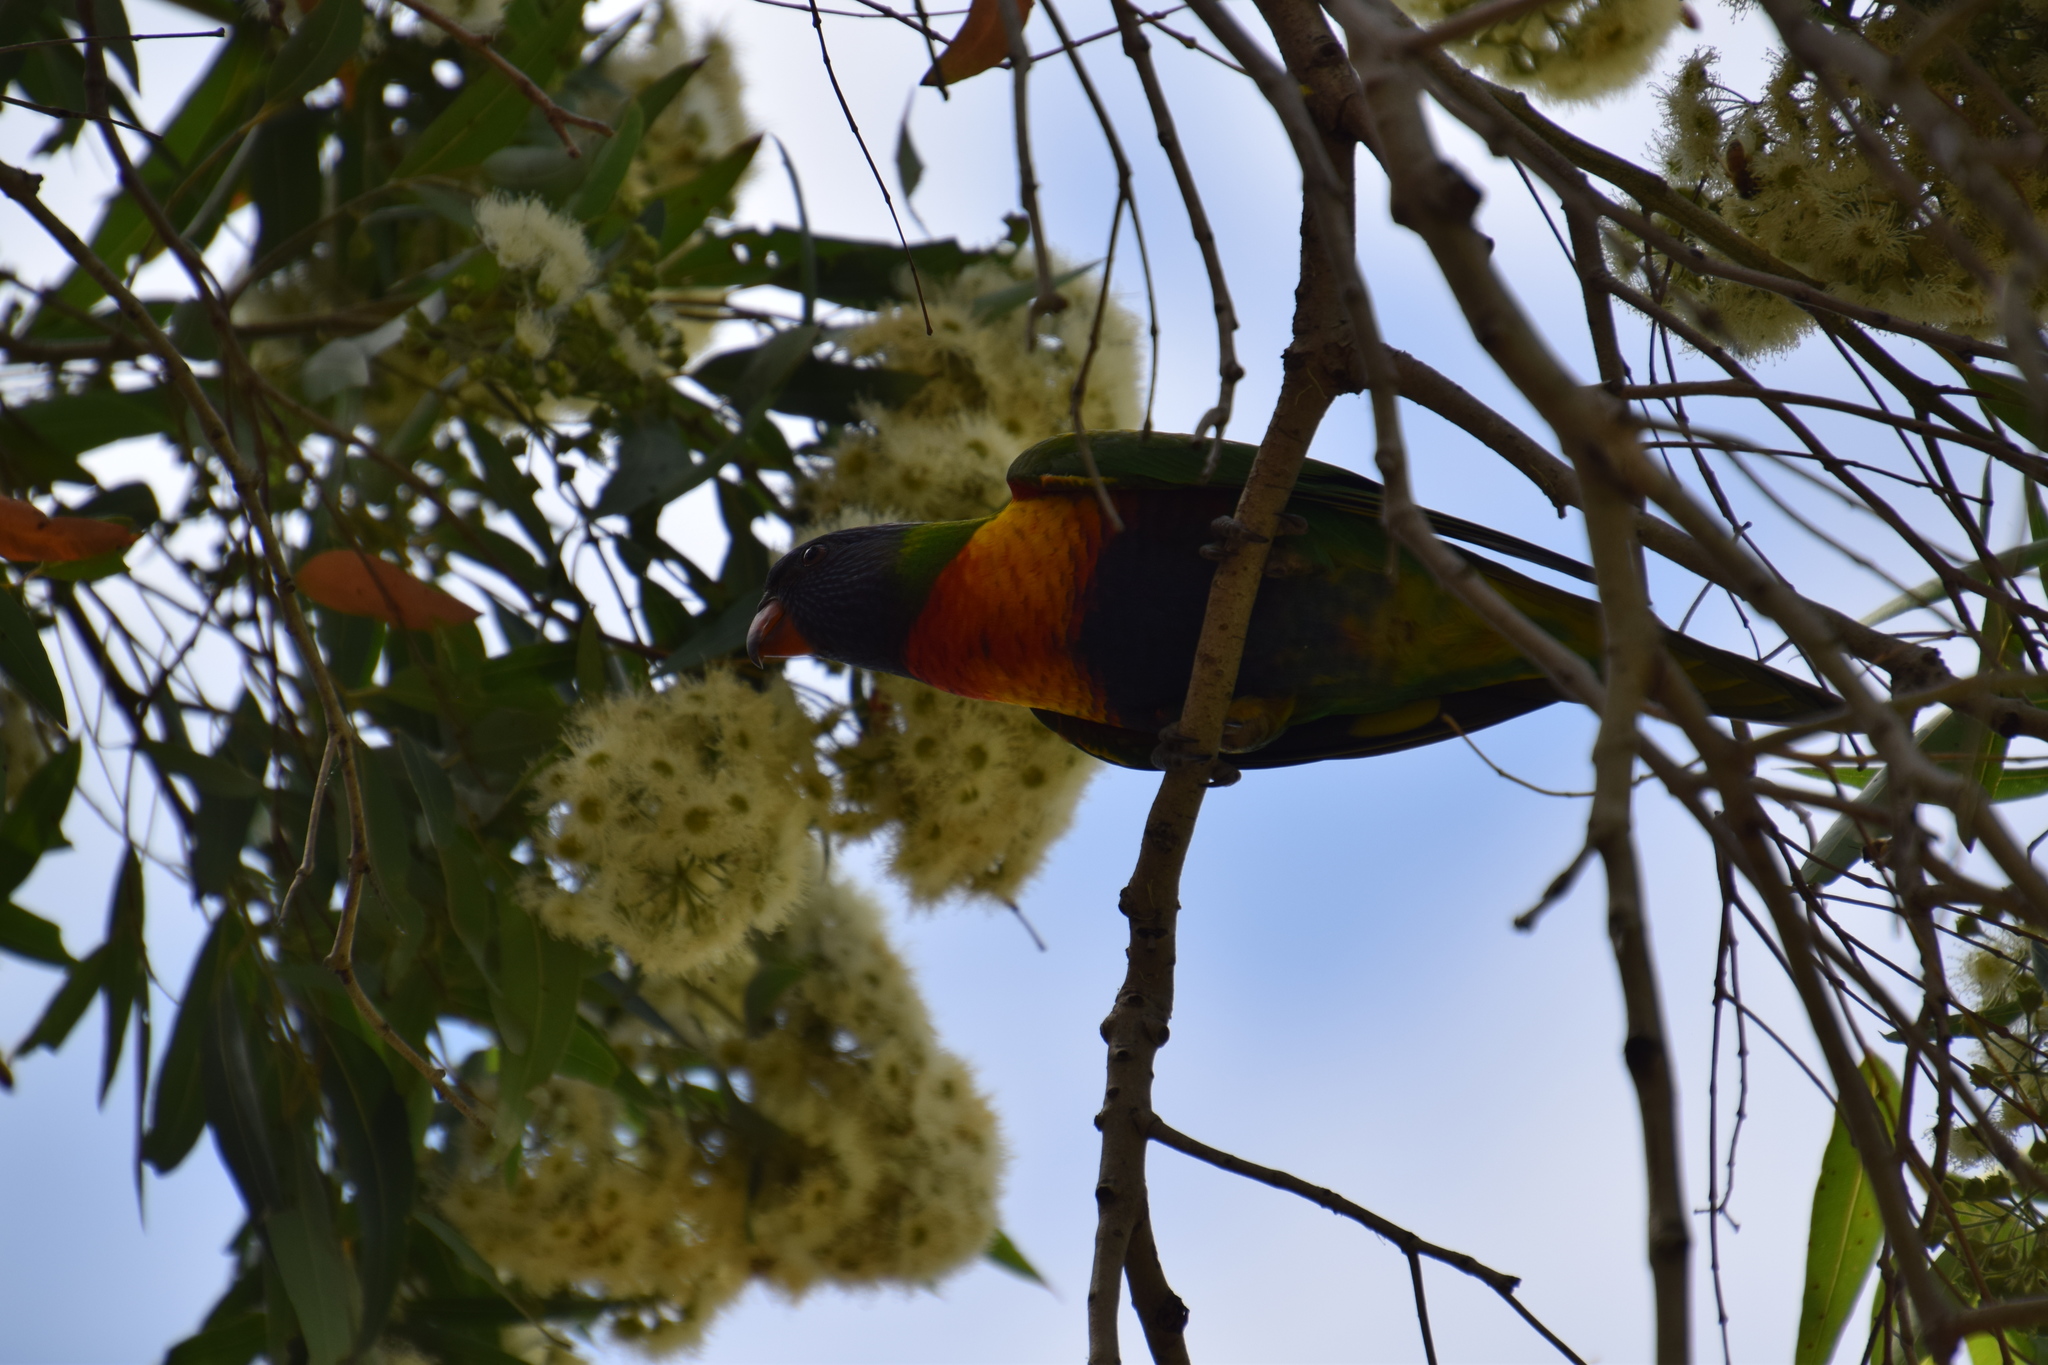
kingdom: Animalia
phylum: Chordata
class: Aves
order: Psittaciformes
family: Psittacidae
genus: Trichoglossus
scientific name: Trichoglossus haematodus
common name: Coconut lorikeet
